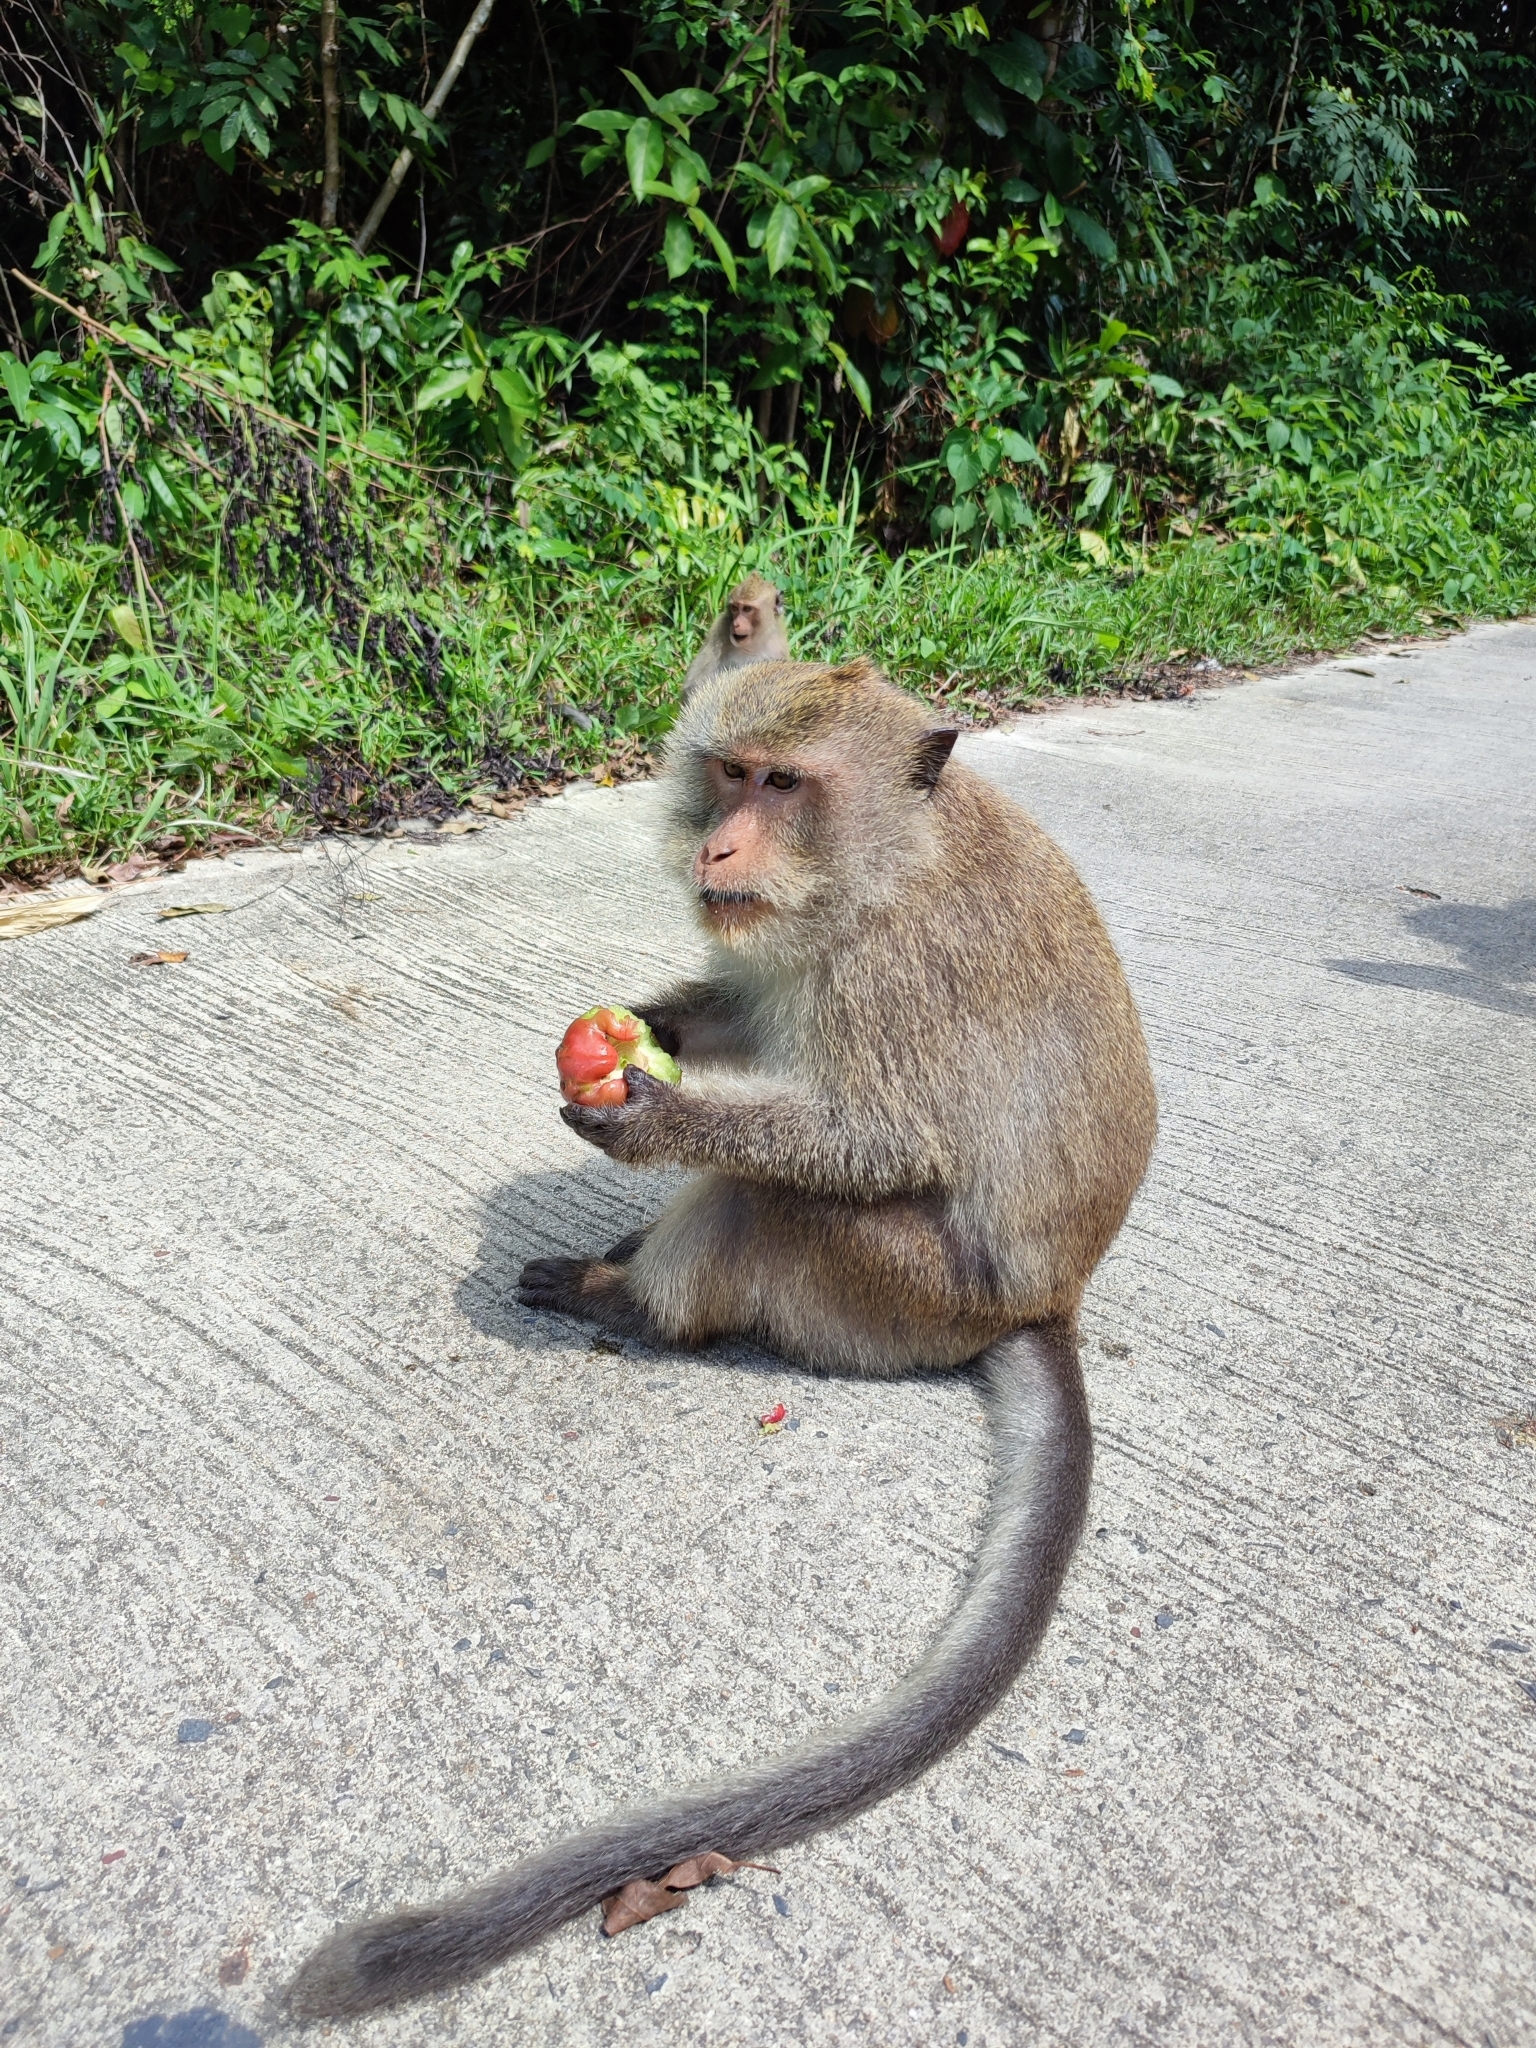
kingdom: Animalia
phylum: Chordata
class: Mammalia
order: Primates
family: Cercopithecidae
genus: Macaca
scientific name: Macaca fascicularis
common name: Crab-eating macaque
